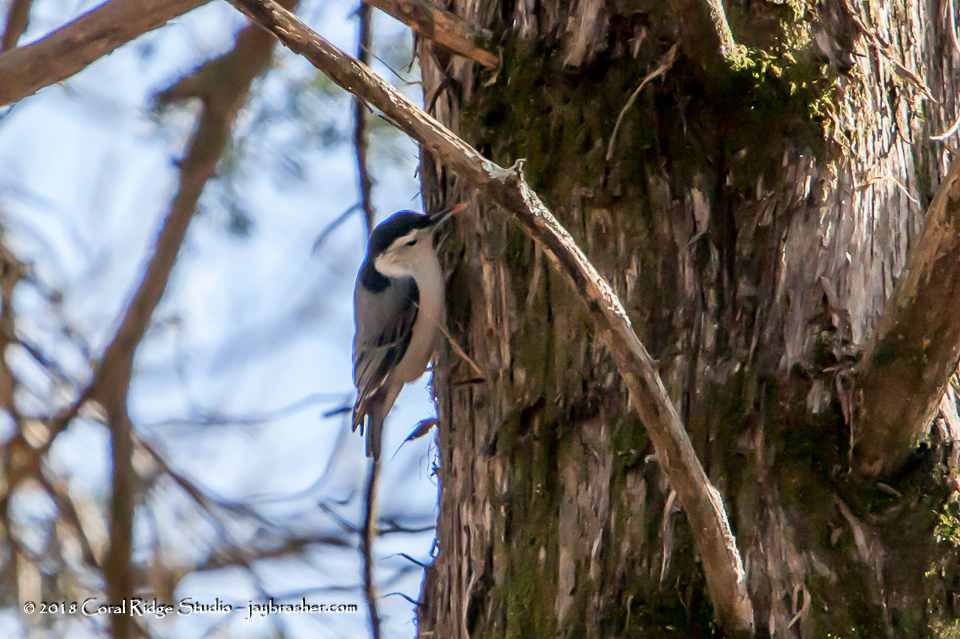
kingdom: Animalia
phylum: Chordata
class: Aves
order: Passeriformes
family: Sittidae
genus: Sitta
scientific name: Sitta carolinensis
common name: White-breasted nuthatch
